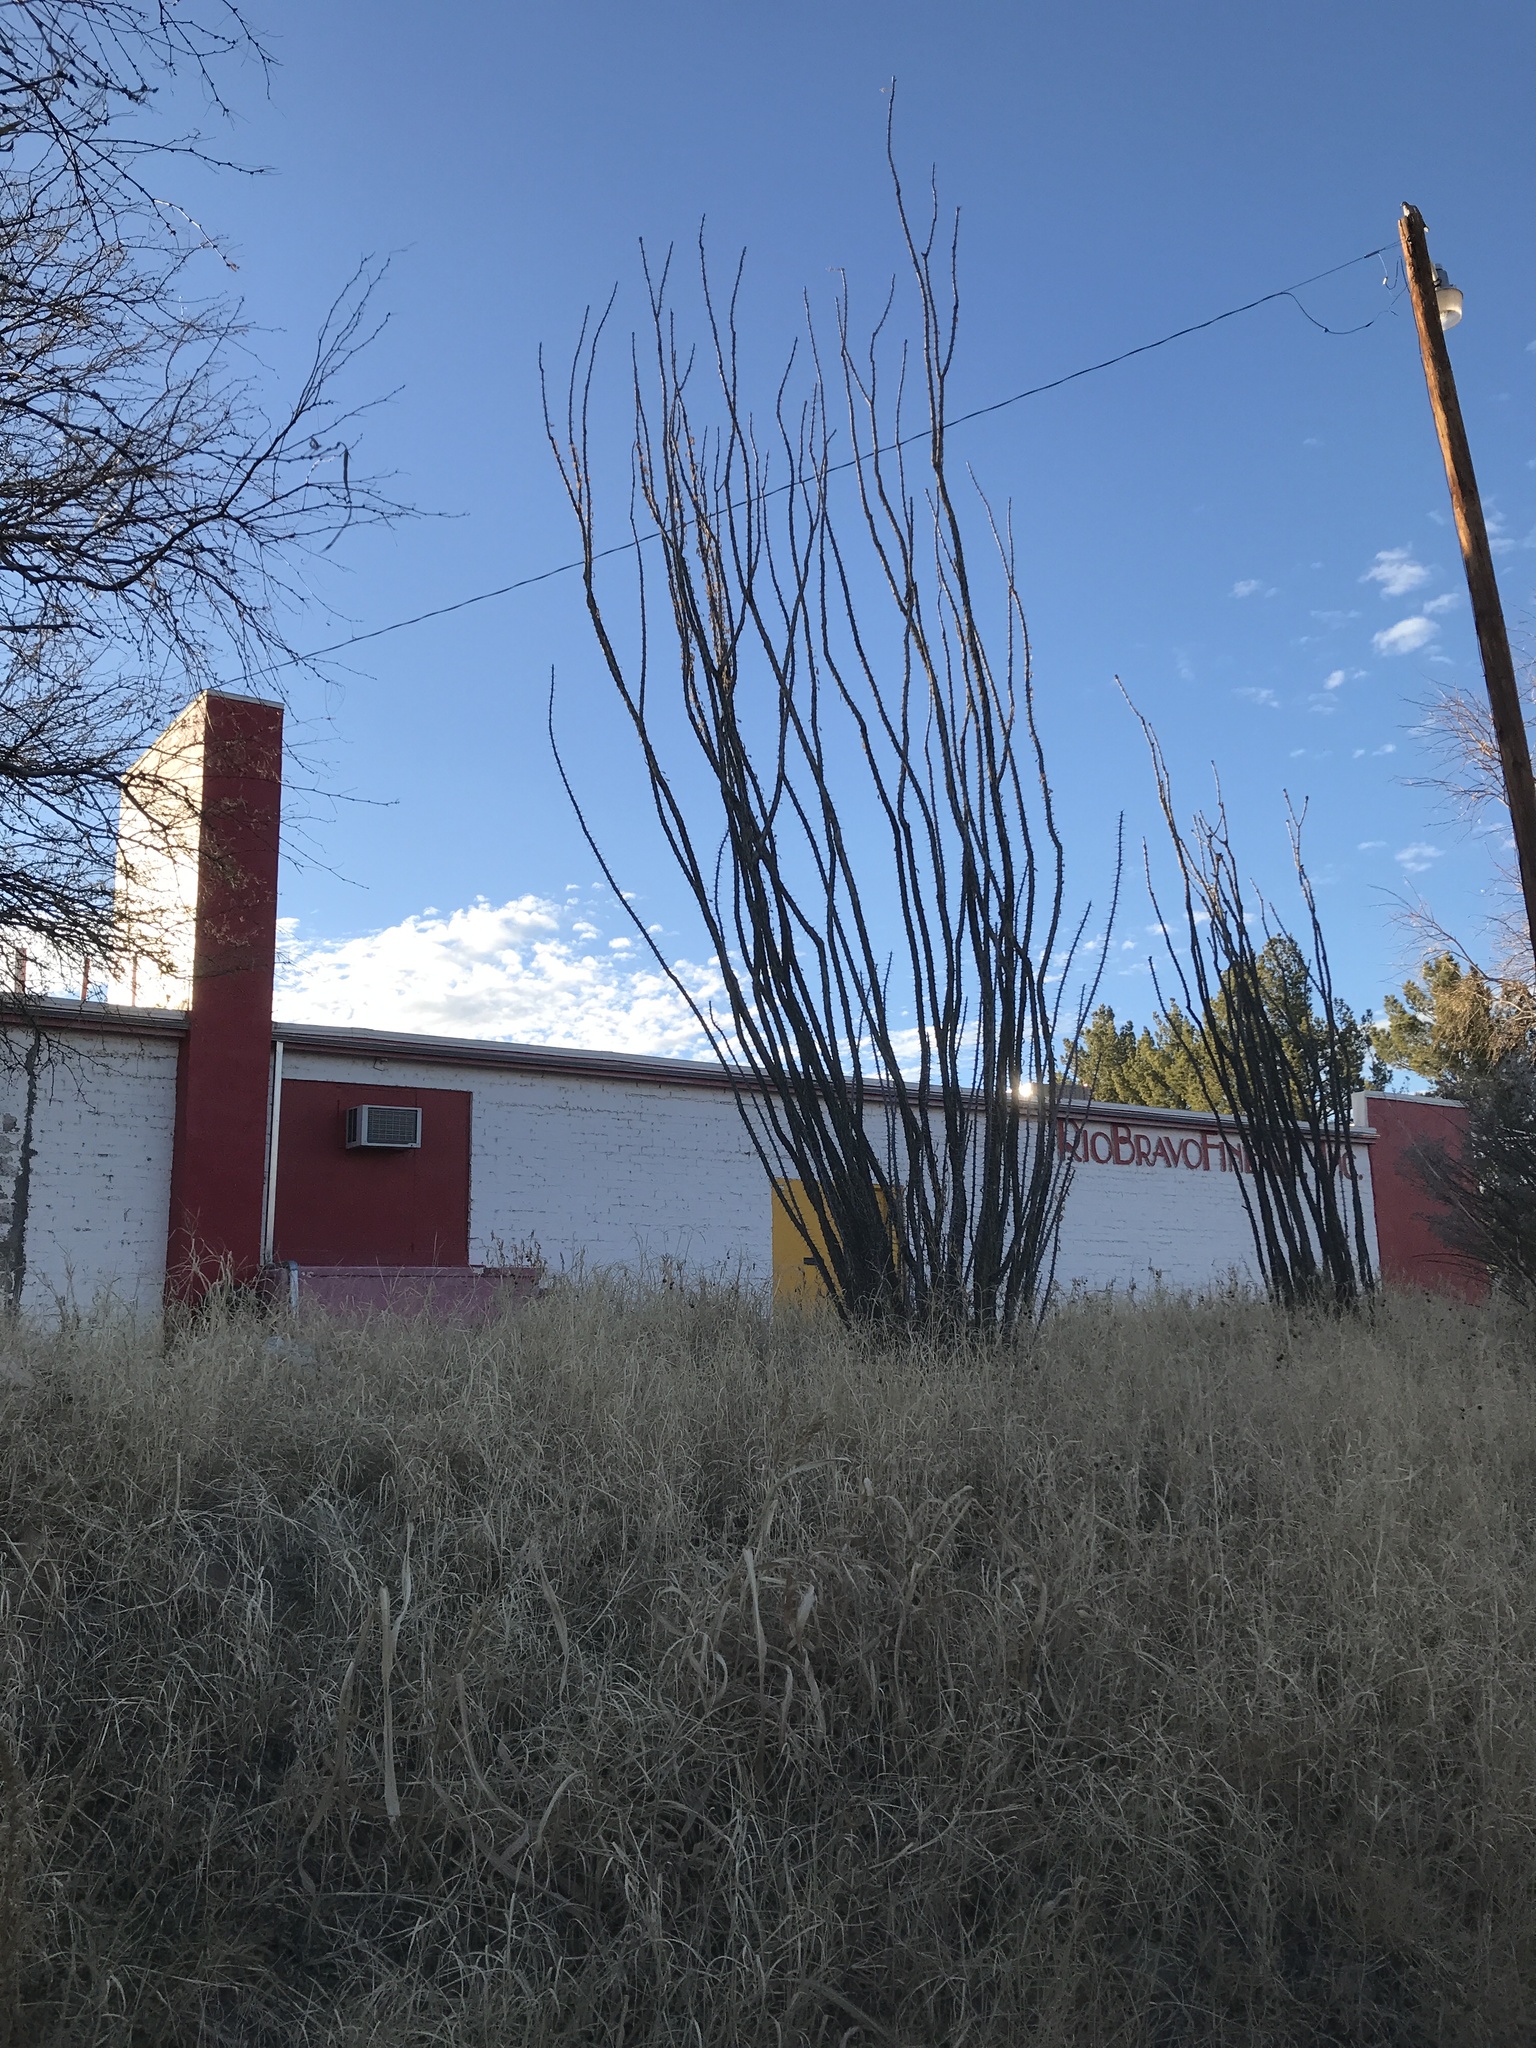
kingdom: Plantae
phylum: Tracheophyta
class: Magnoliopsida
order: Ericales
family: Fouquieriaceae
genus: Fouquieria
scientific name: Fouquieria splendens
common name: Vine-cactus
